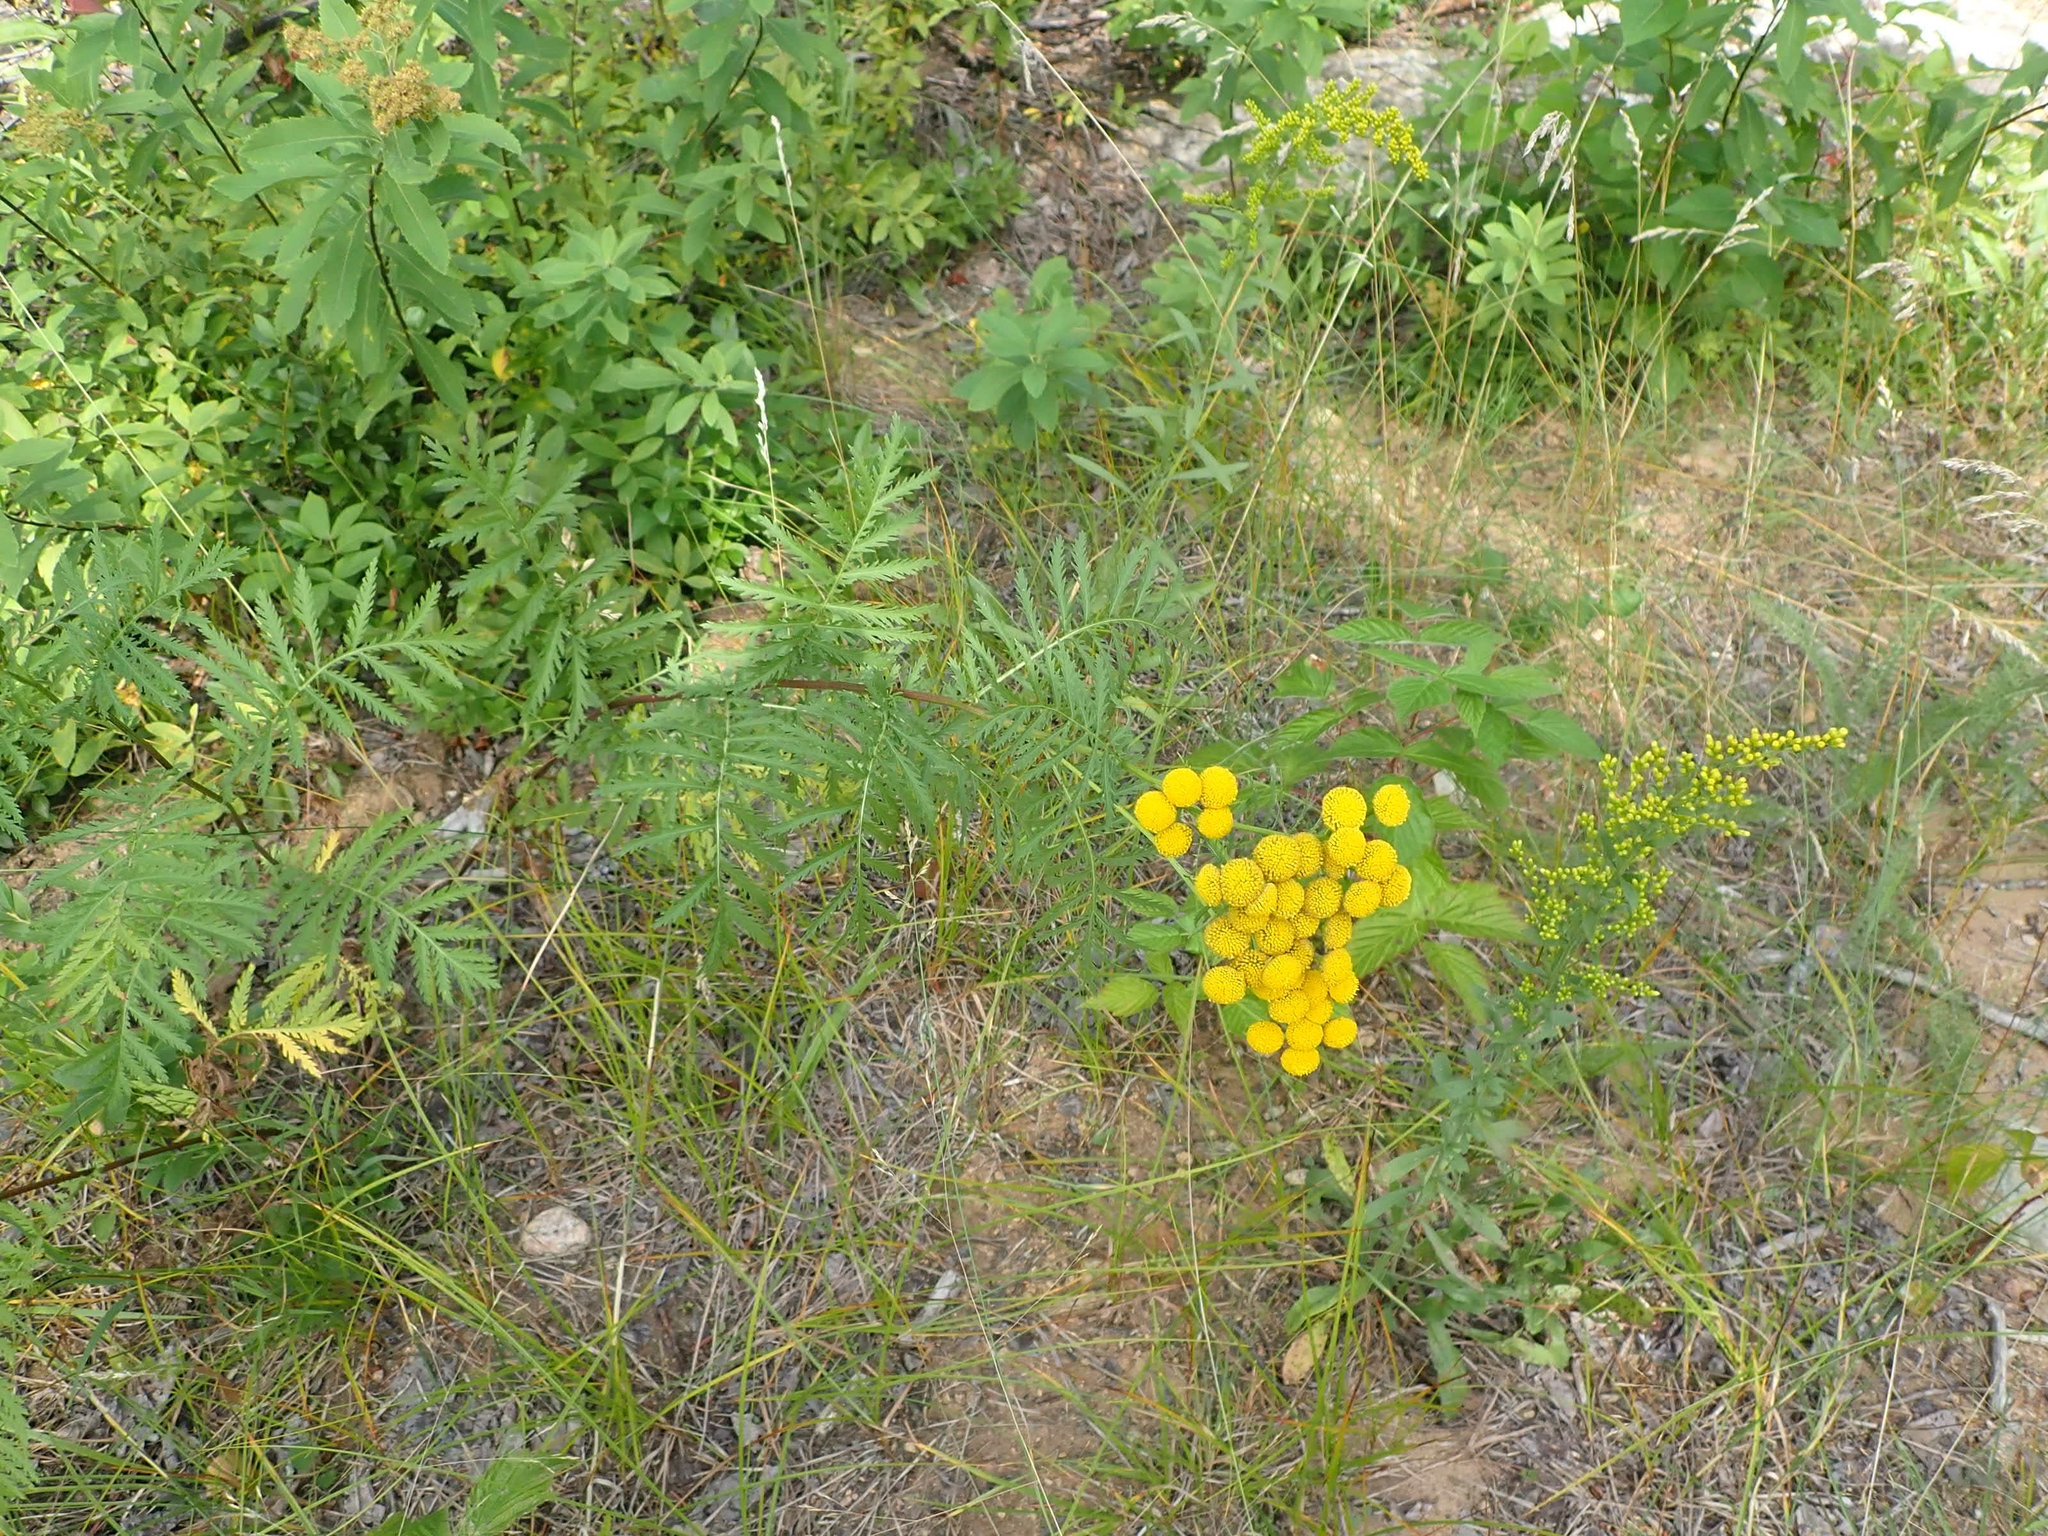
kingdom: Plantae
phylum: Tracheophyta
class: Magnoliopsida
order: Asterales
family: Asteraceae
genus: Tanacetum
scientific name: Tanacetum vulgare
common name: Common tansy
